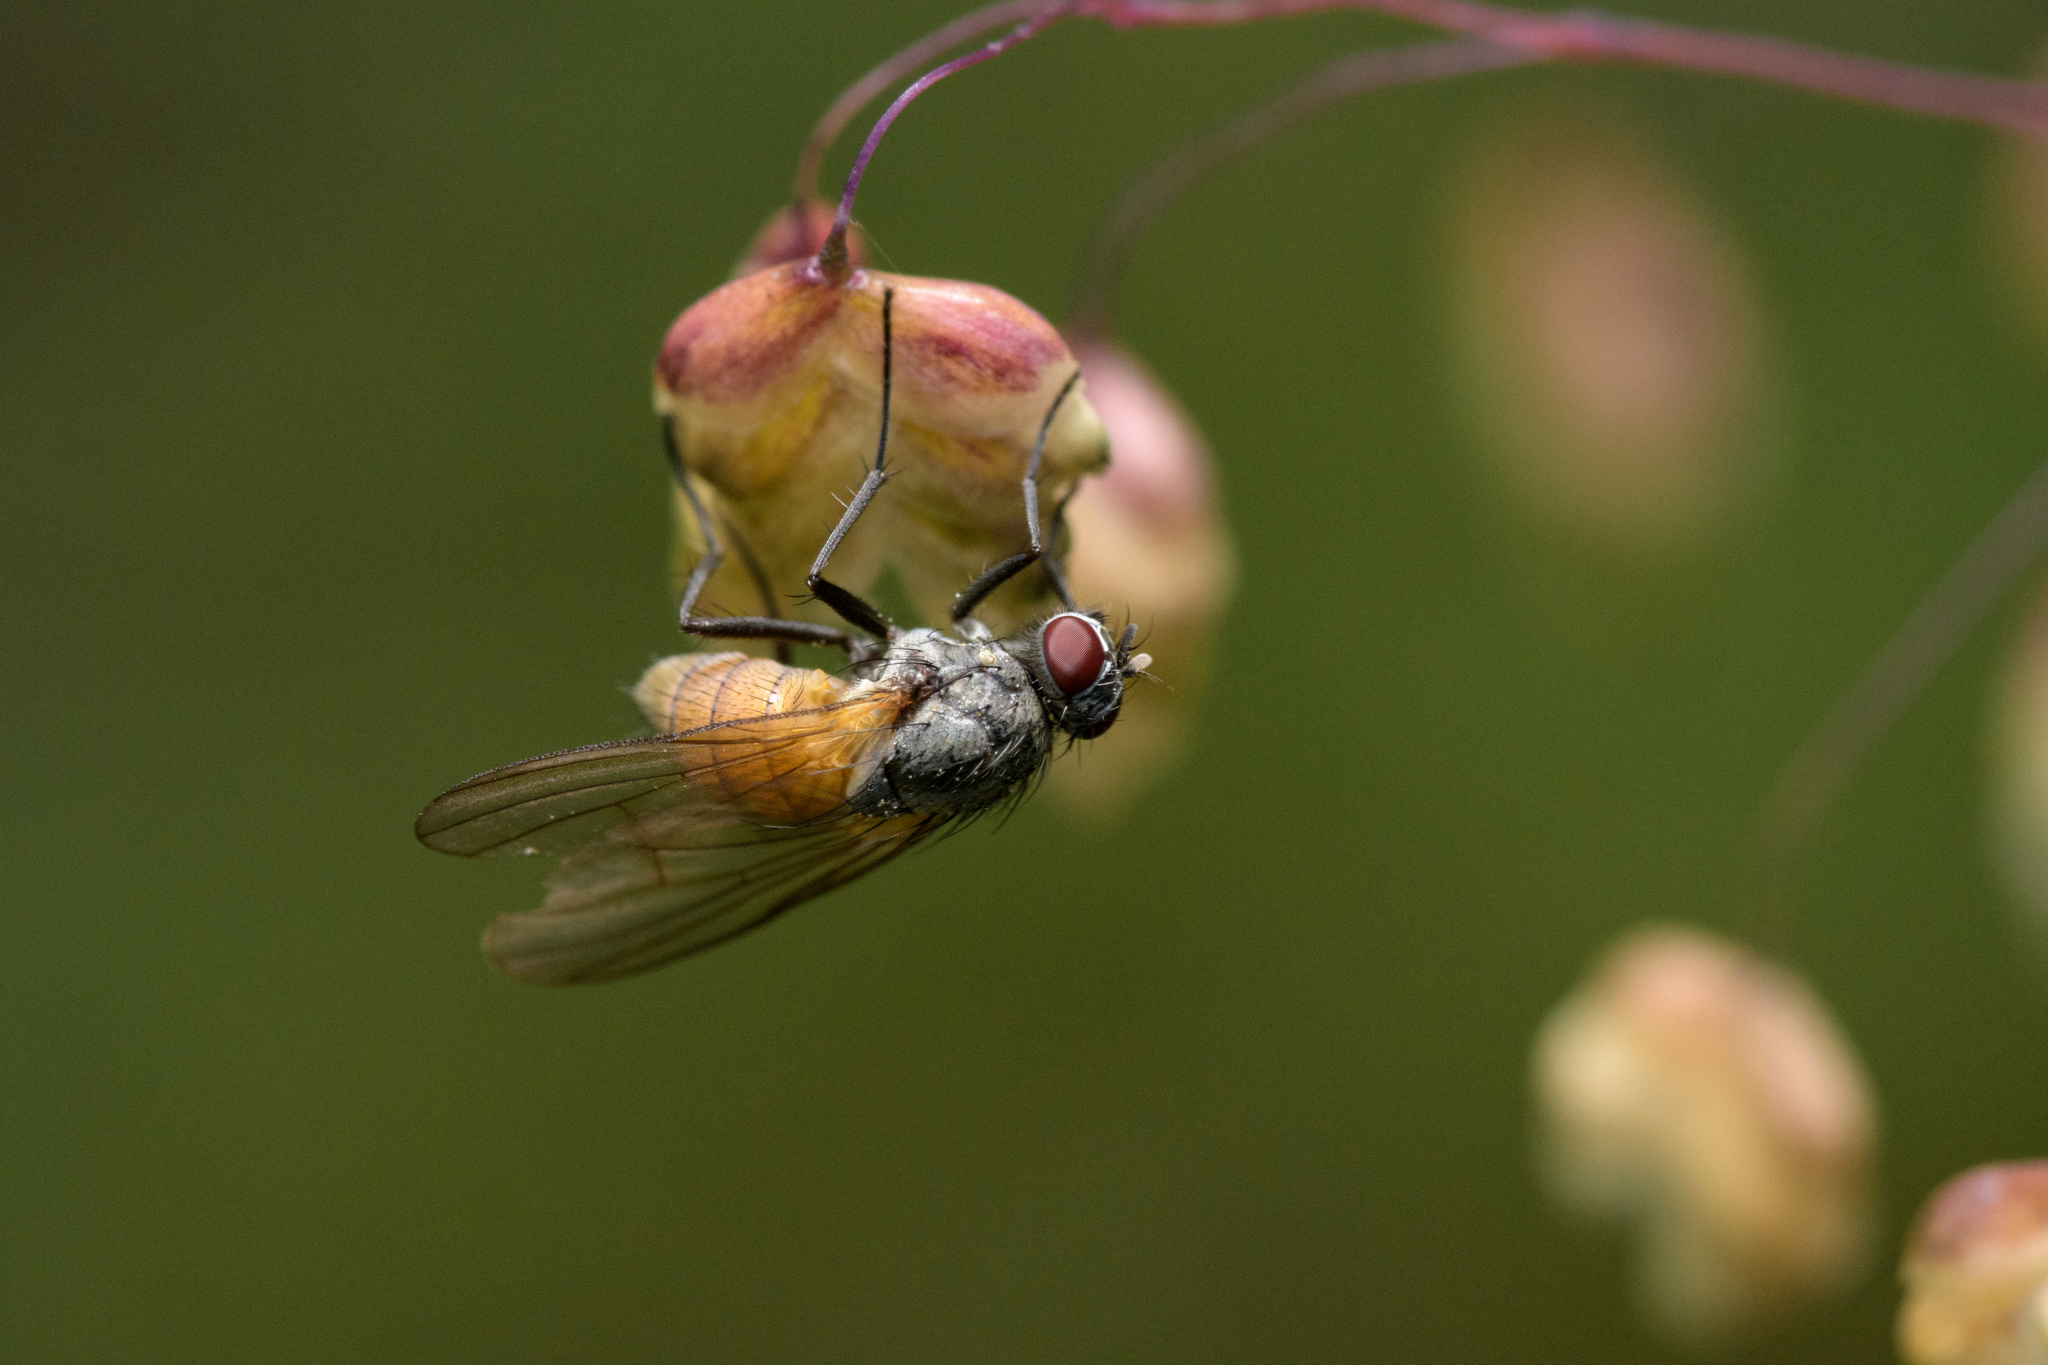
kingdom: Animalia
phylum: Arthropoda
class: Insecta
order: Diptera
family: Muscidae
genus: Thricops
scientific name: Thricops semicinereus
